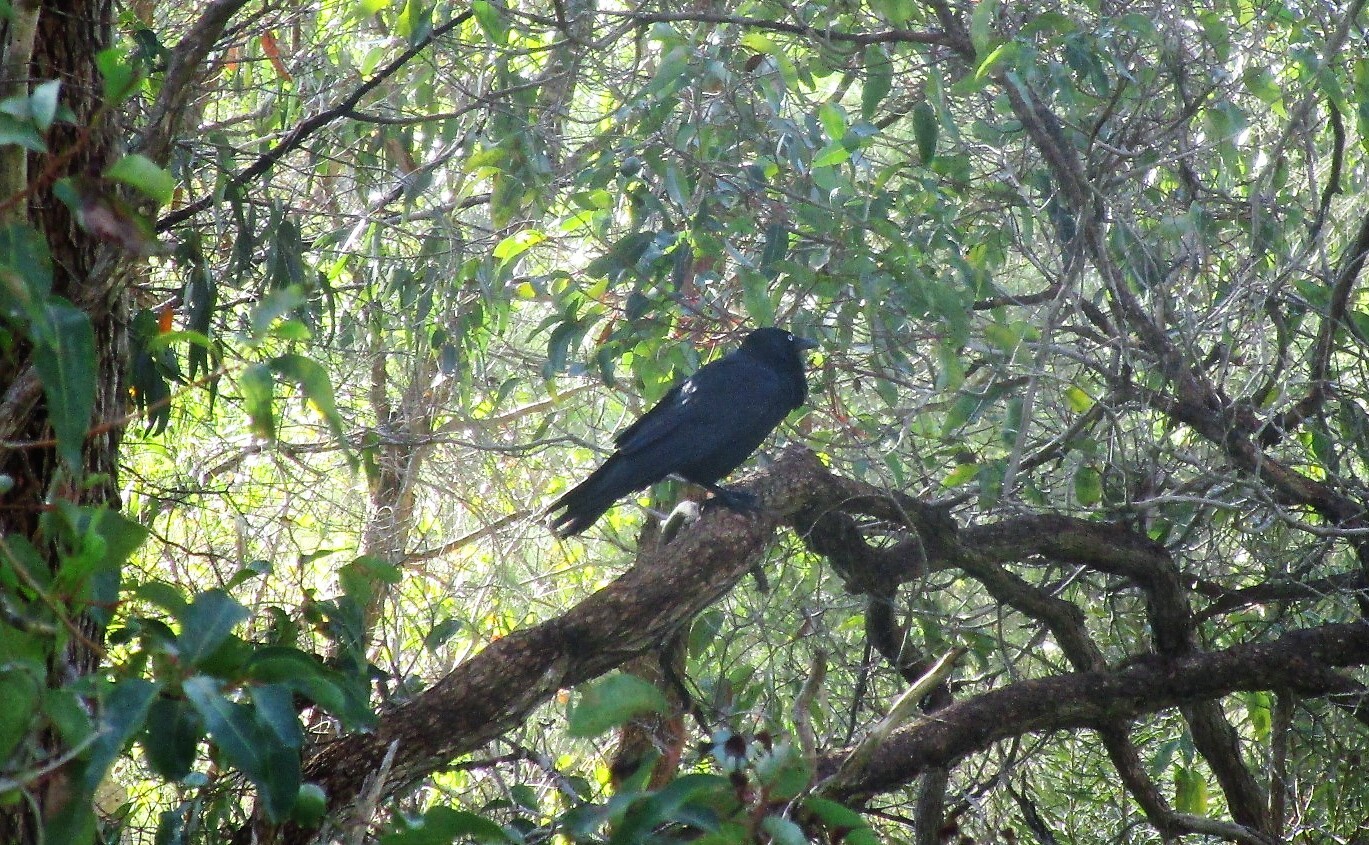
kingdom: Animalia
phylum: Chordata
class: Aves
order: Passeriformes
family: Corvidae
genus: Corvus
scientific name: Corvus coronoides
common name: Australian raven
